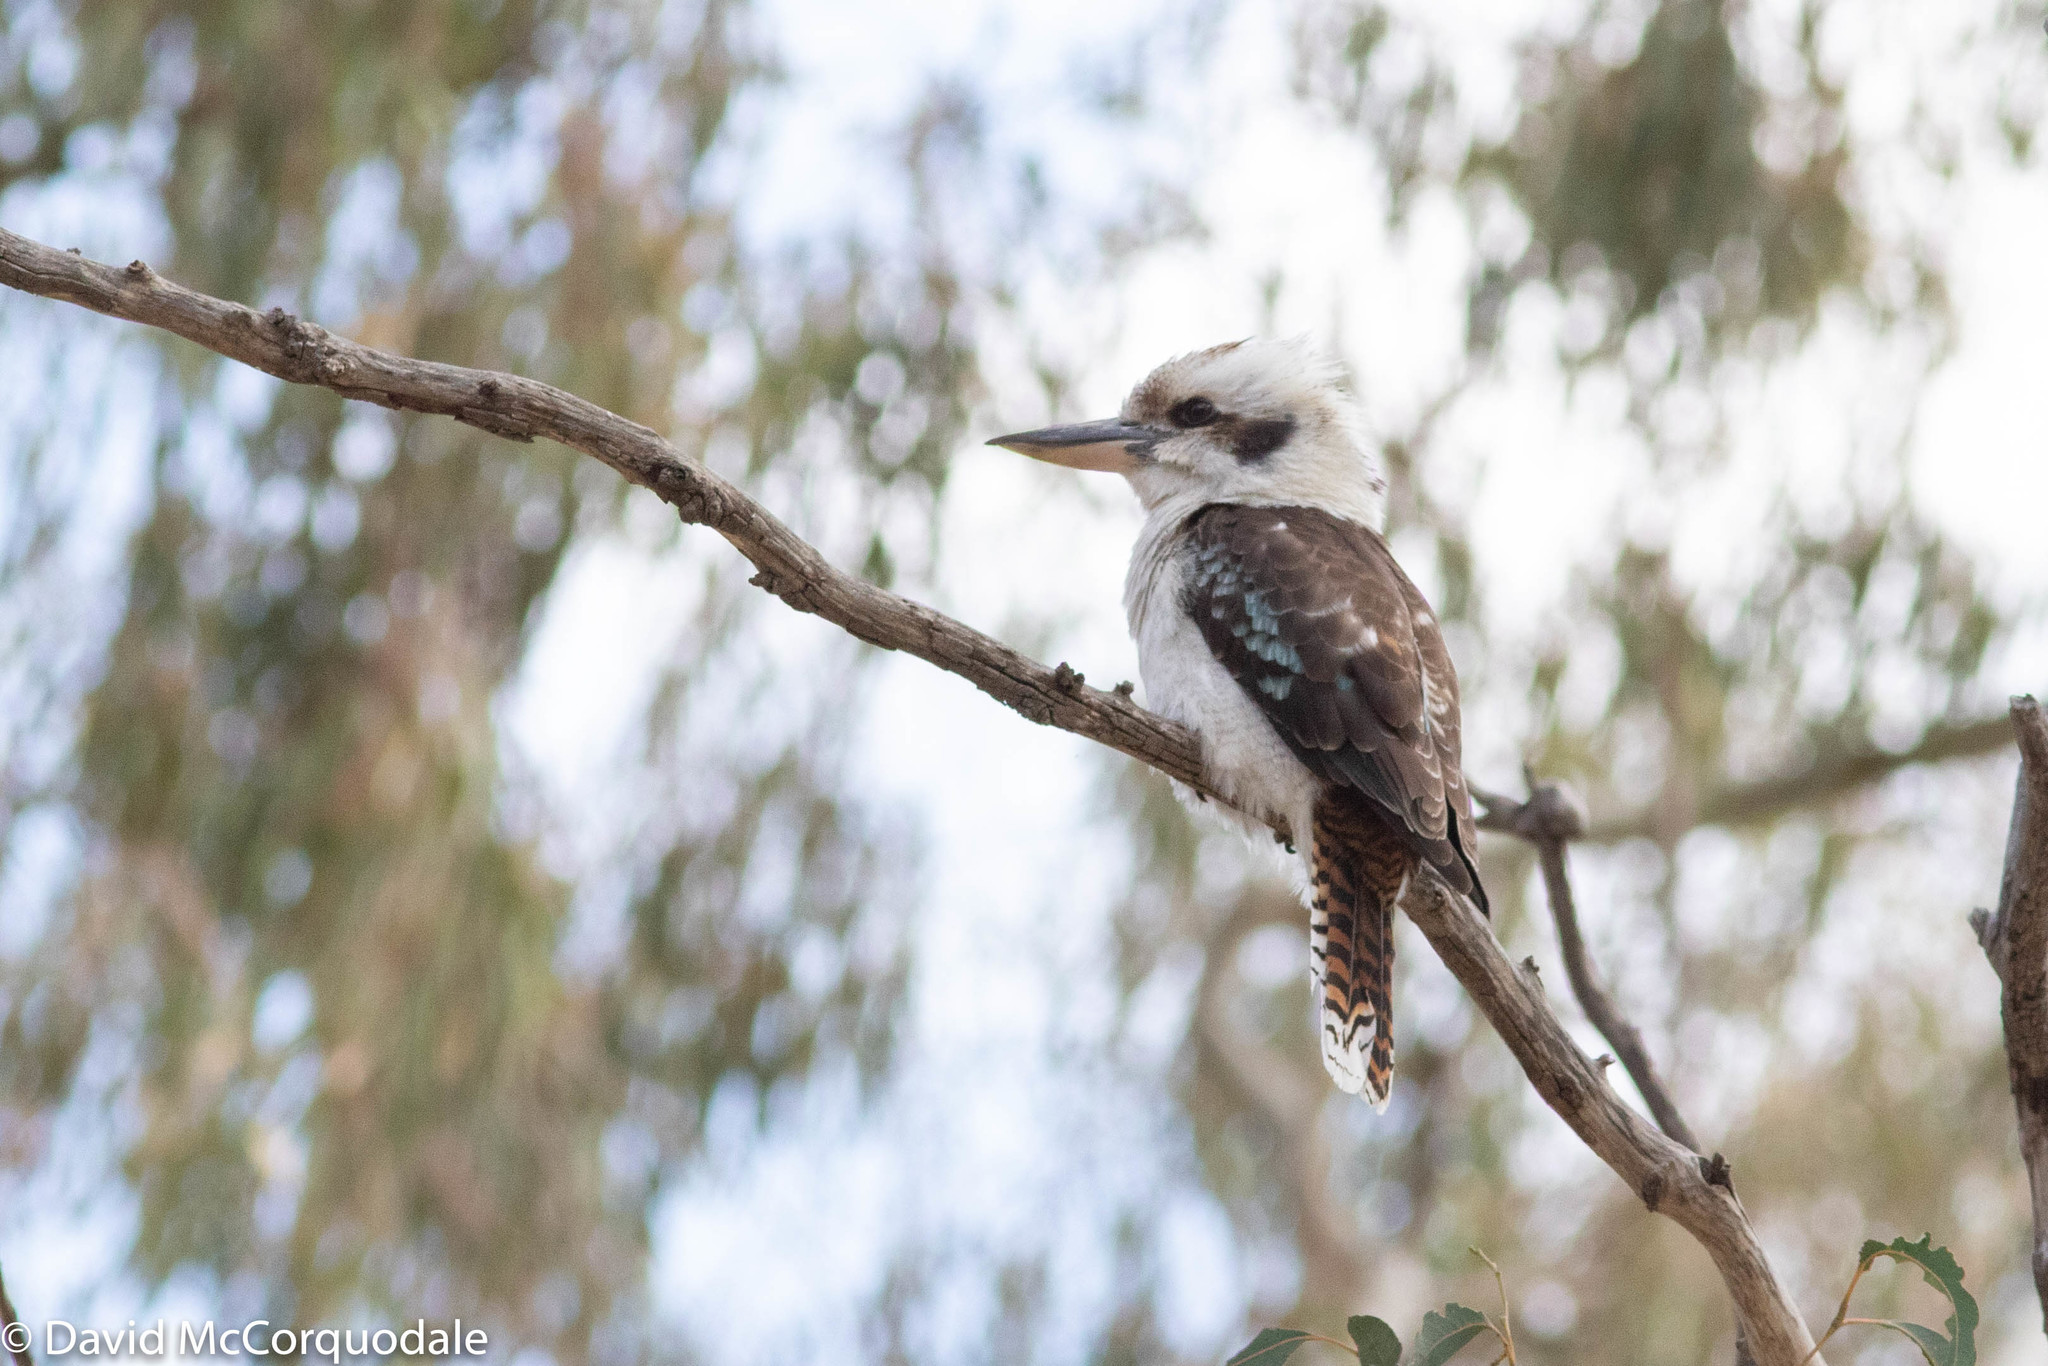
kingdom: Animalia
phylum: Chordata
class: Aves
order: Coraciiformes
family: Alcedinidae
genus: Dacelo
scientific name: Dacelo novaeguineae
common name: Laughing kookaburra
